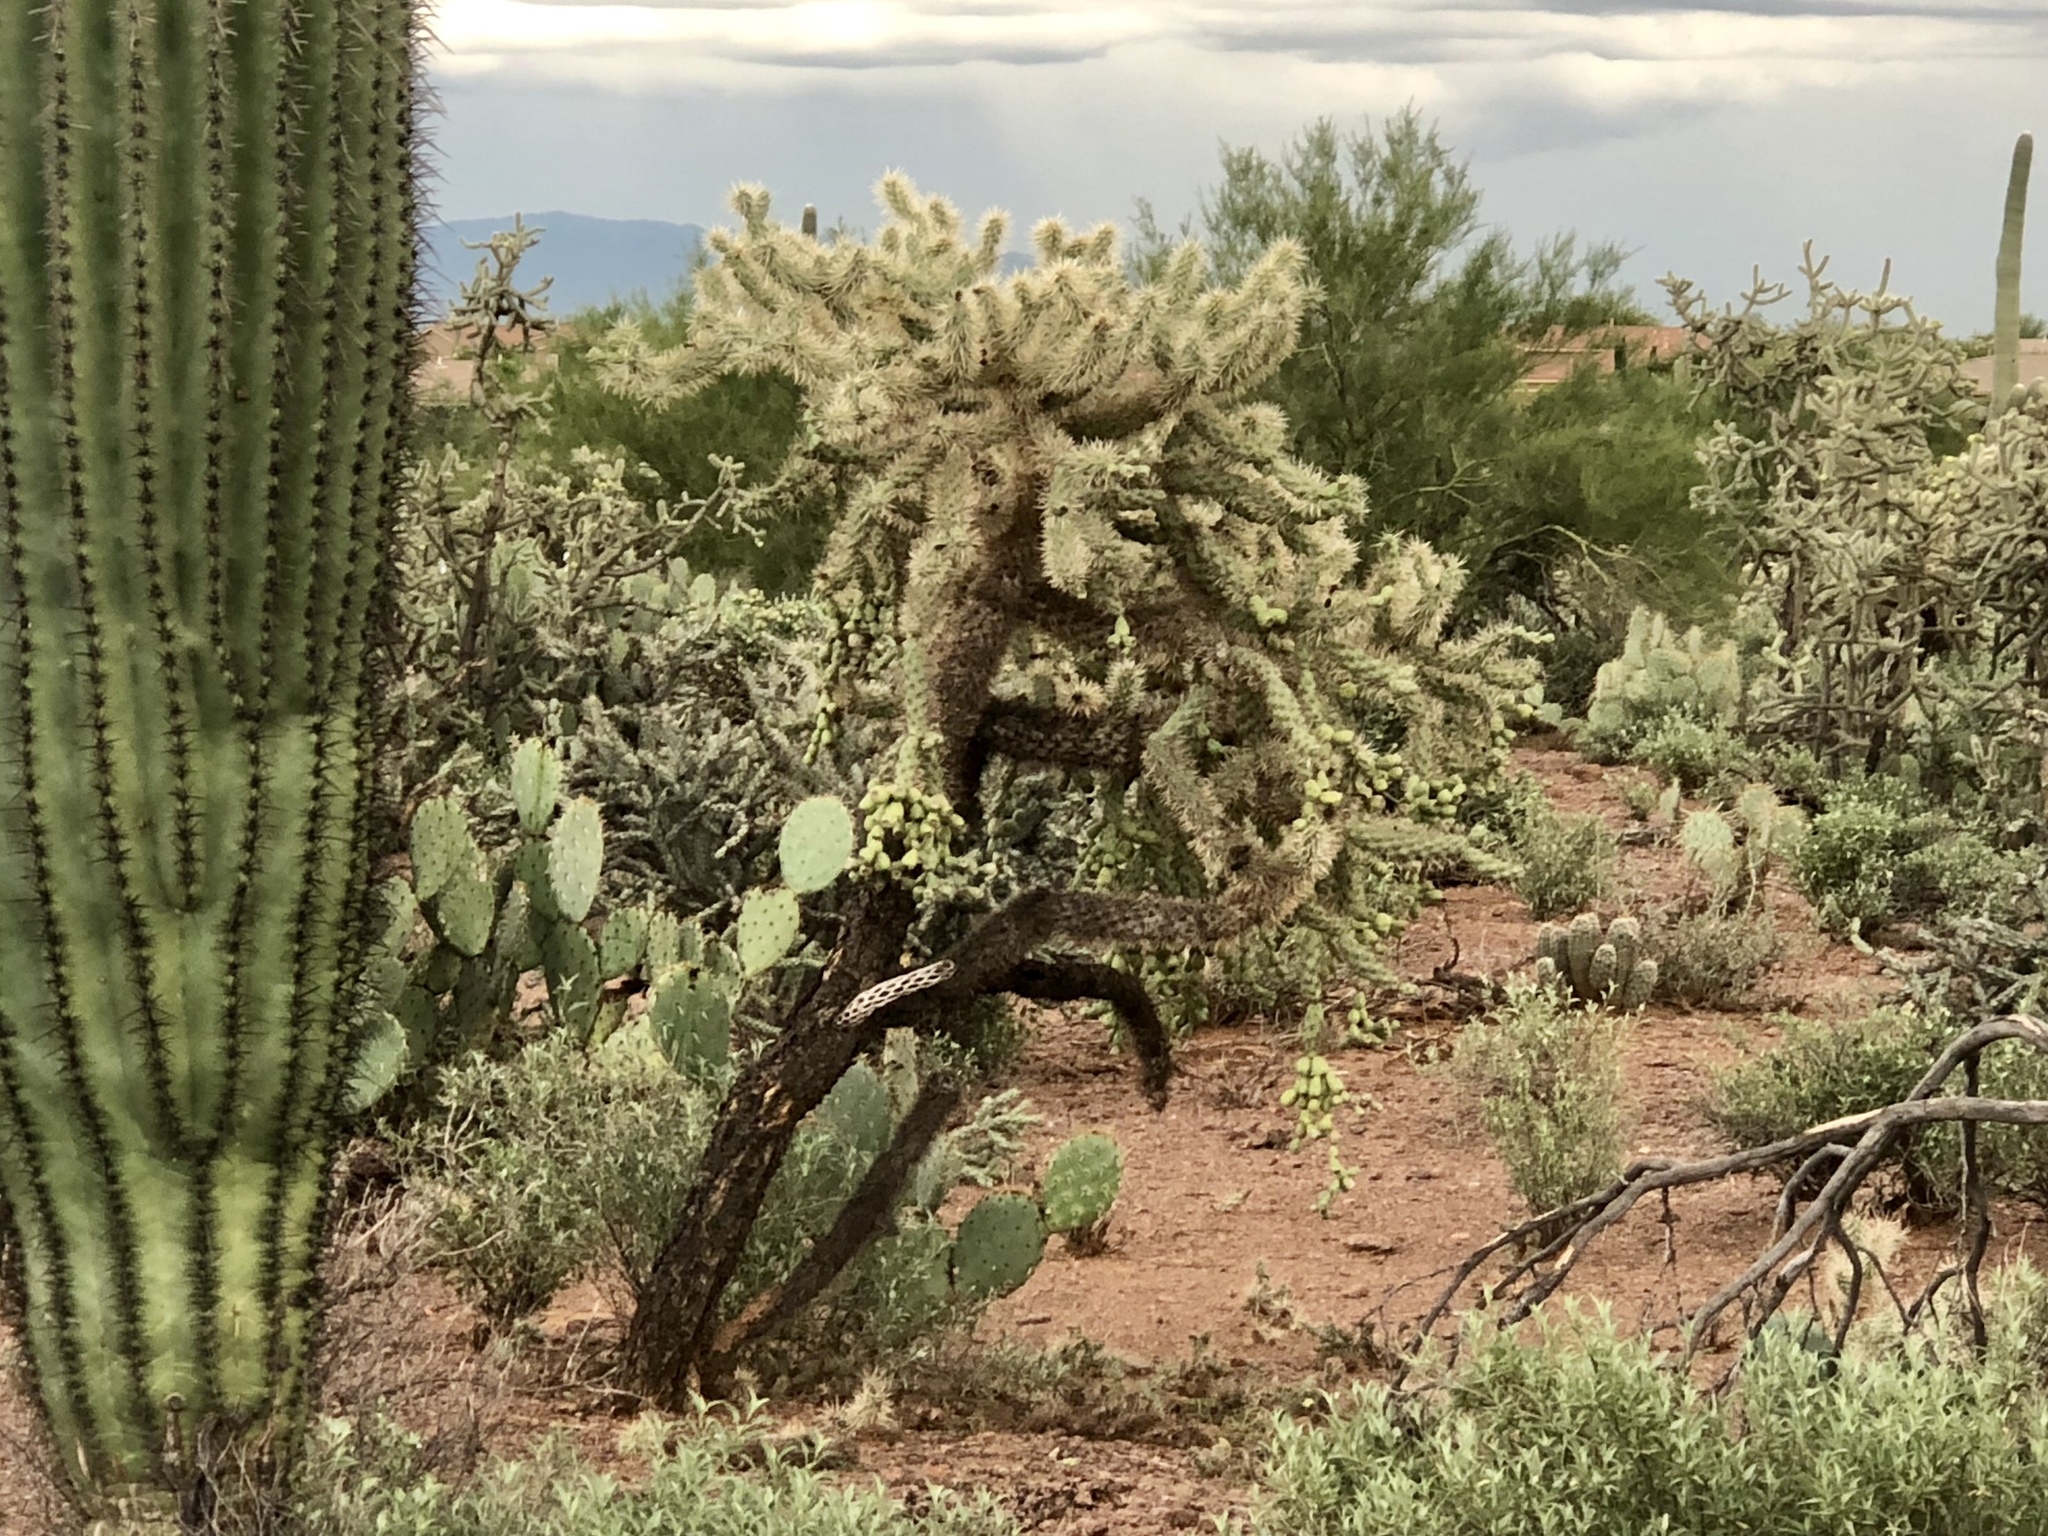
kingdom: Plantae
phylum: Tracheophyta
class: Magnoliopsida
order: Caryophyllales
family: Cactaceae
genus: Cylindropuntia
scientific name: Cylindropuntia fulgida
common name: Jumping cholla
